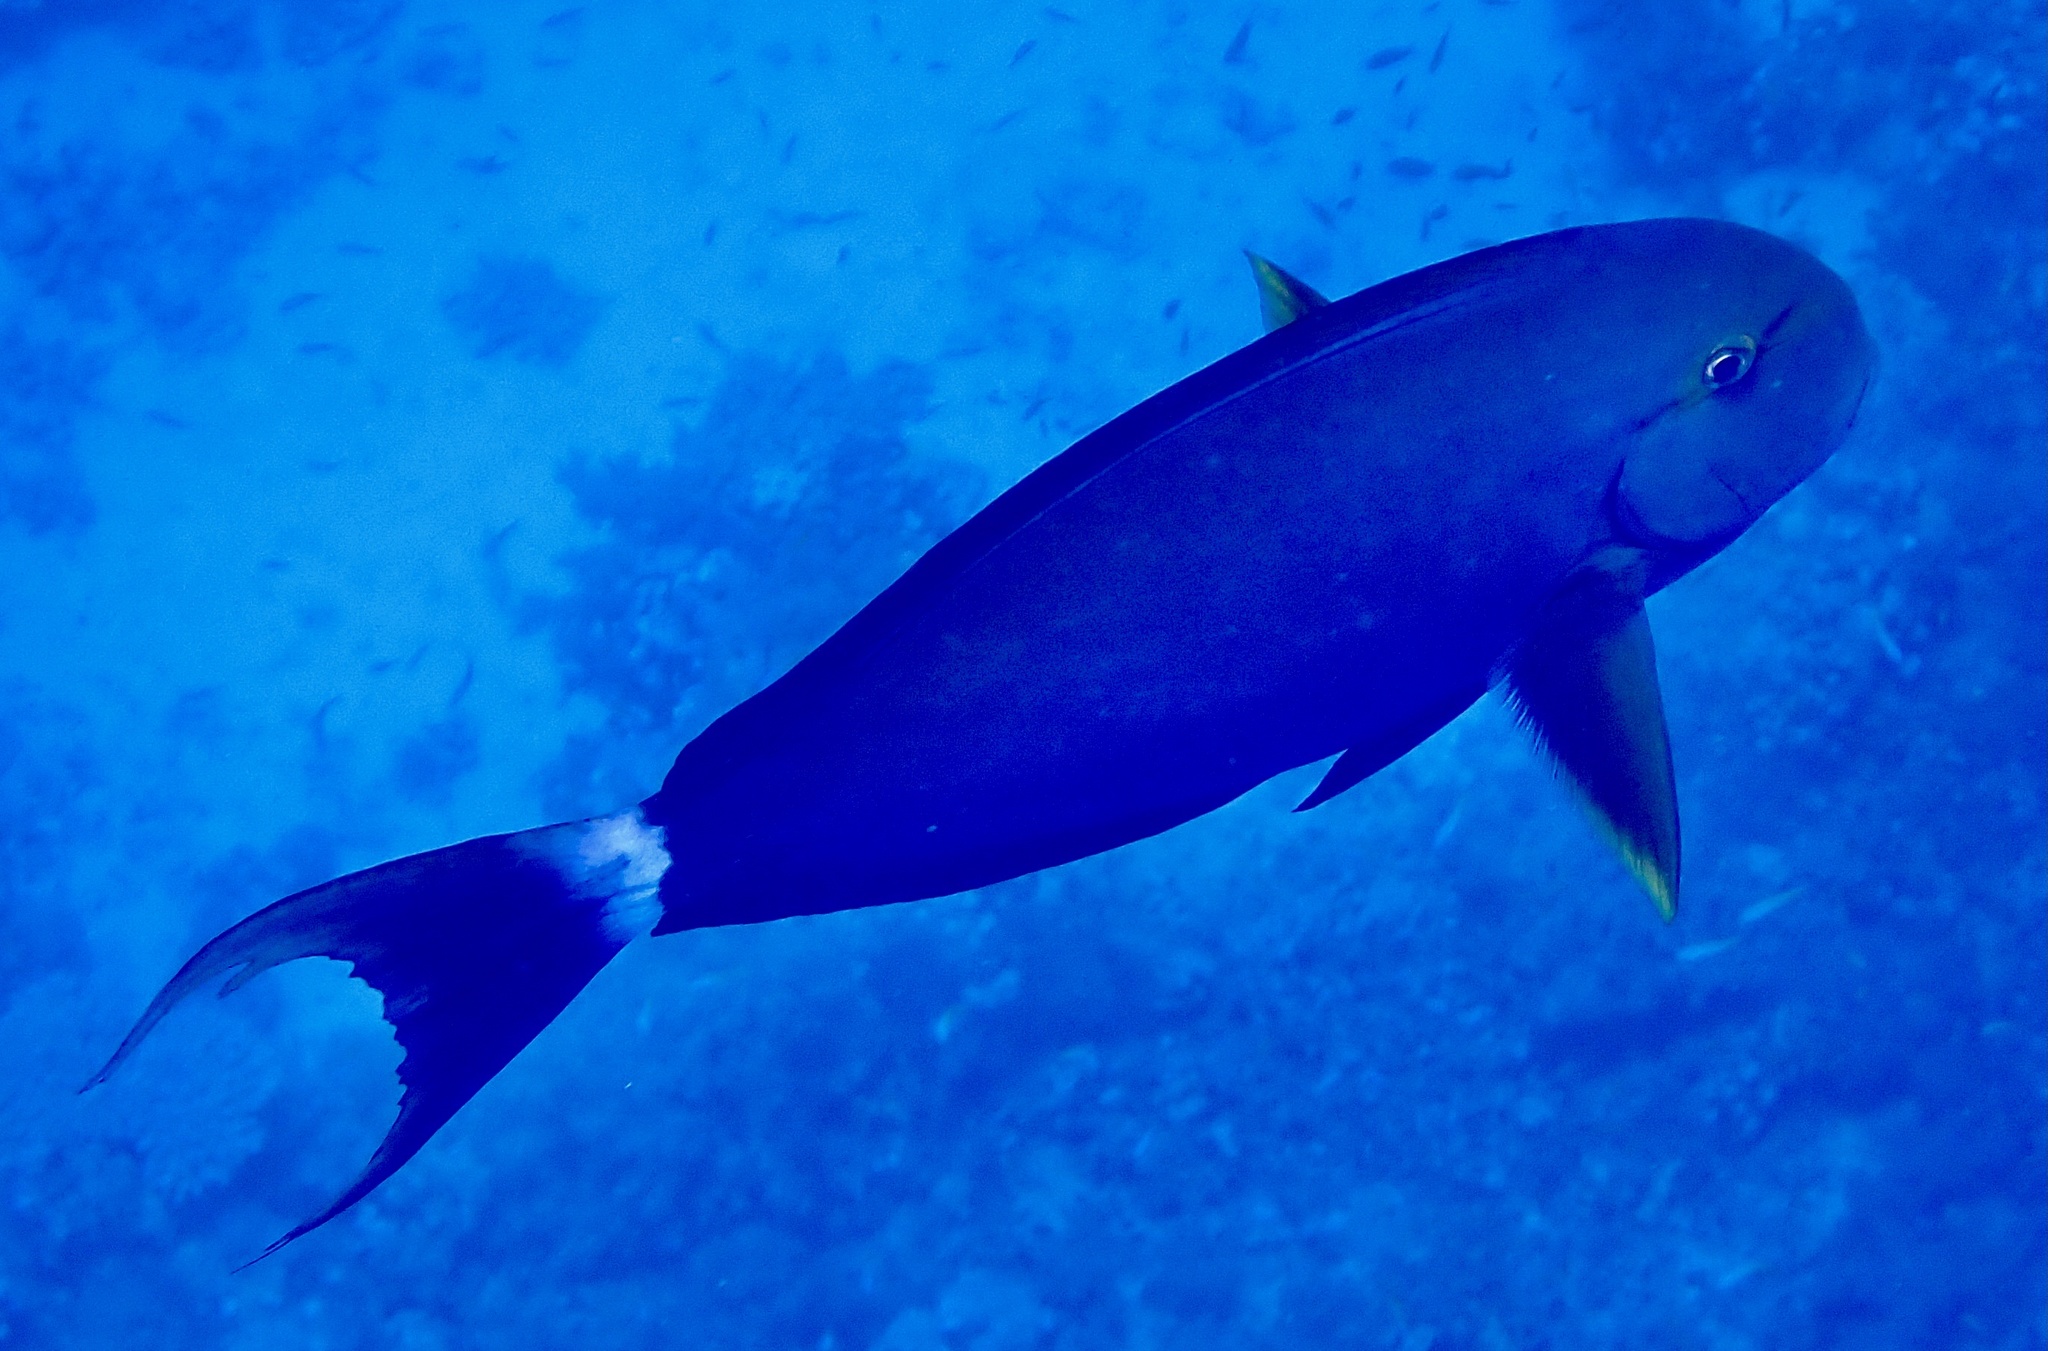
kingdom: Animalia
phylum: Chordata
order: Perciformes
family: Acanthuridae
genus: Acanthurus
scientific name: Acanthurus gahhm
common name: Black surgeonfish
